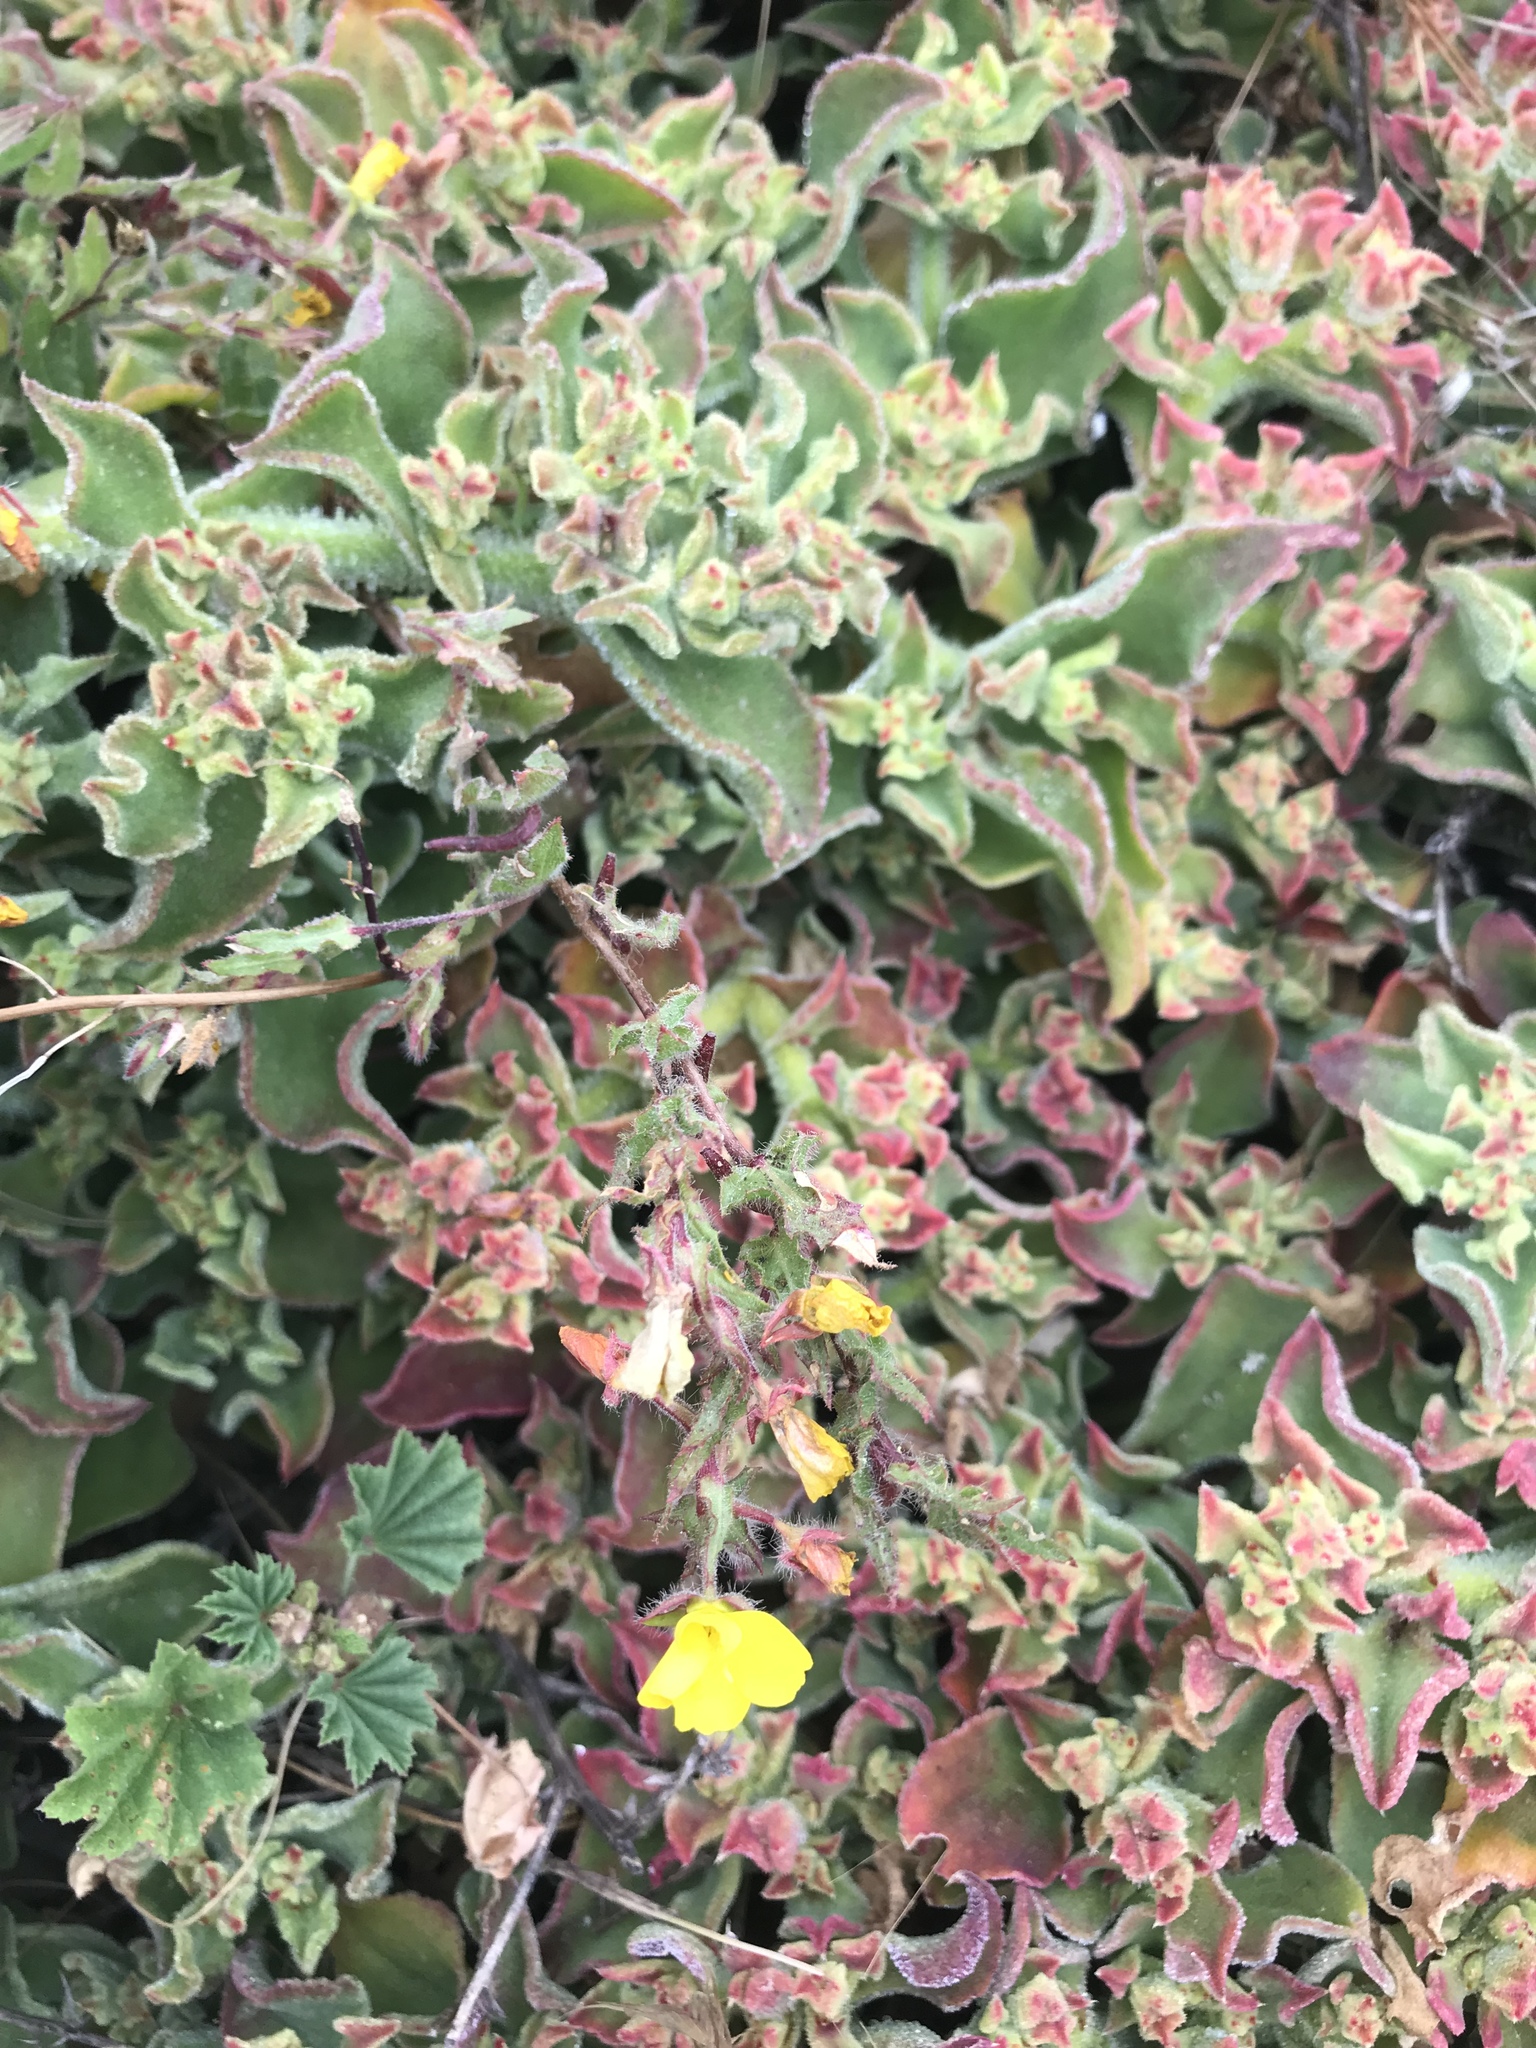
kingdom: Plantae
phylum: Tracheophyta
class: Magnoliopsida
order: Caryophyllales
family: Aizoaceae
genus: Mesembryanthemum
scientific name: Mesembryanthemum crystallinum
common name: Common iceplant
